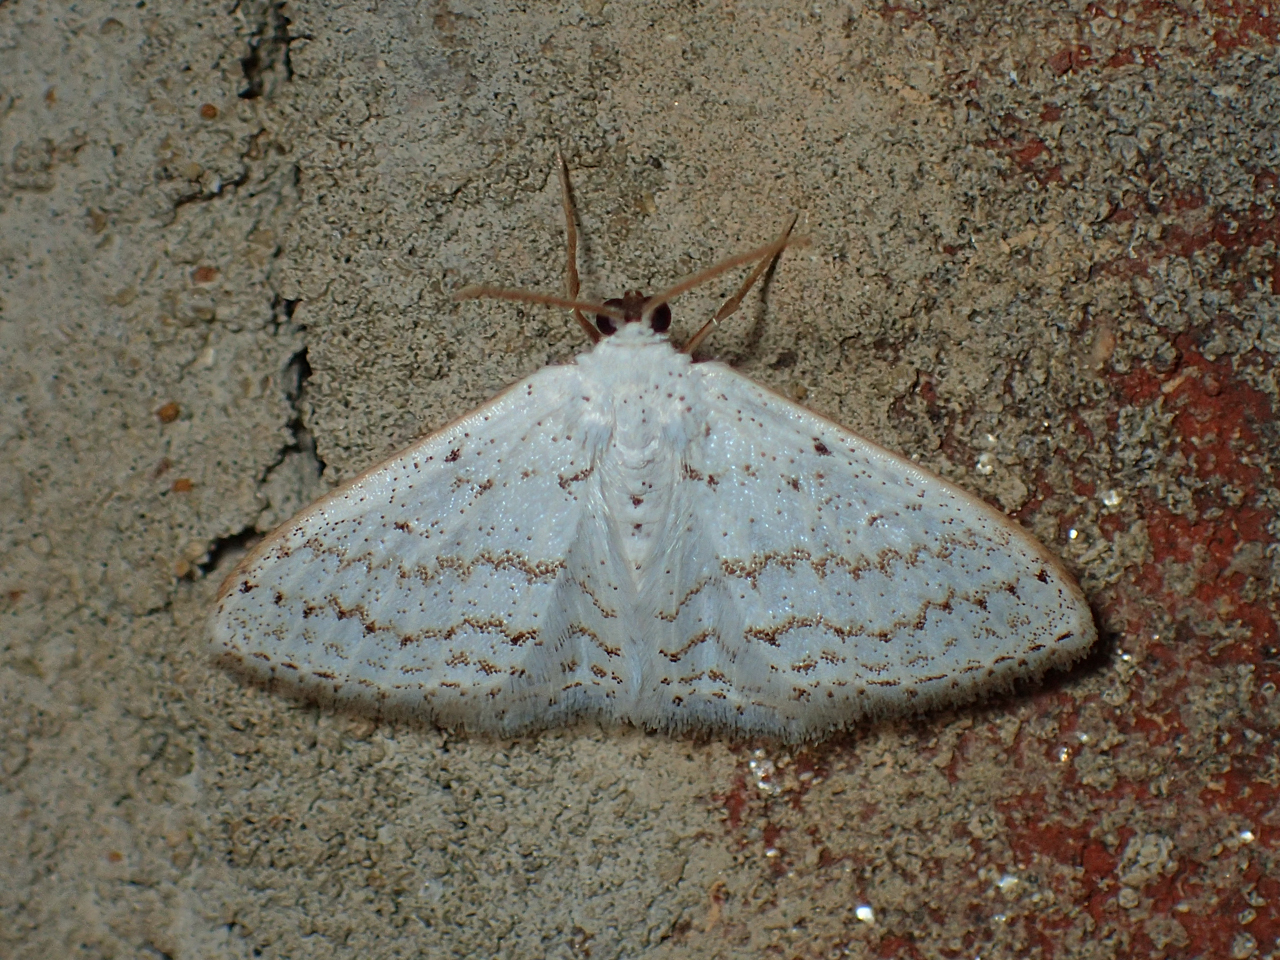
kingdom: Animalia
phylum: Arthropoda
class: Insecta
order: Lepidoptera
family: Geometridae
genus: Idaea
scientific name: Idaea tacturata
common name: Dot-lined wave
